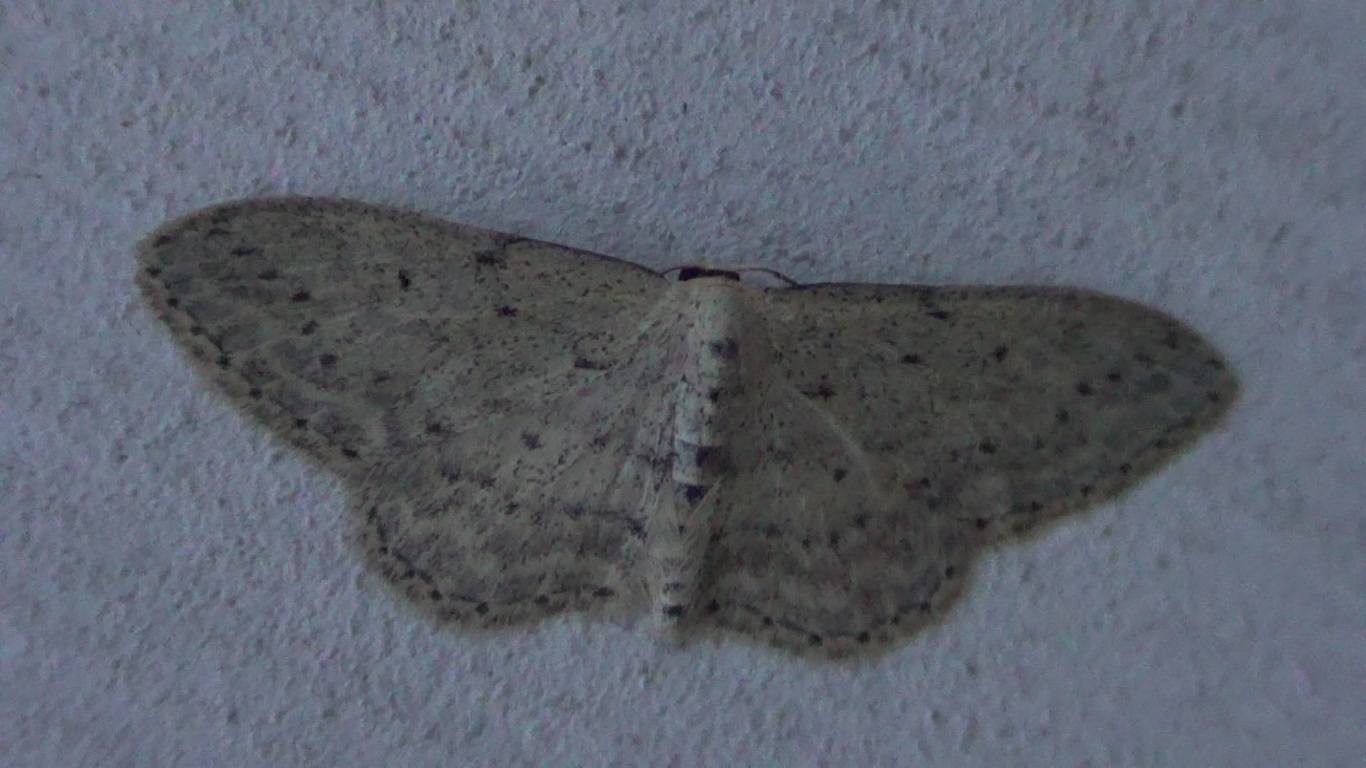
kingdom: Animalia
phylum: Arthropoda
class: Insecta
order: Lepidoptera
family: Geometridae
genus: Idaea
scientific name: Idaea seriata
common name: Small dusty wave
